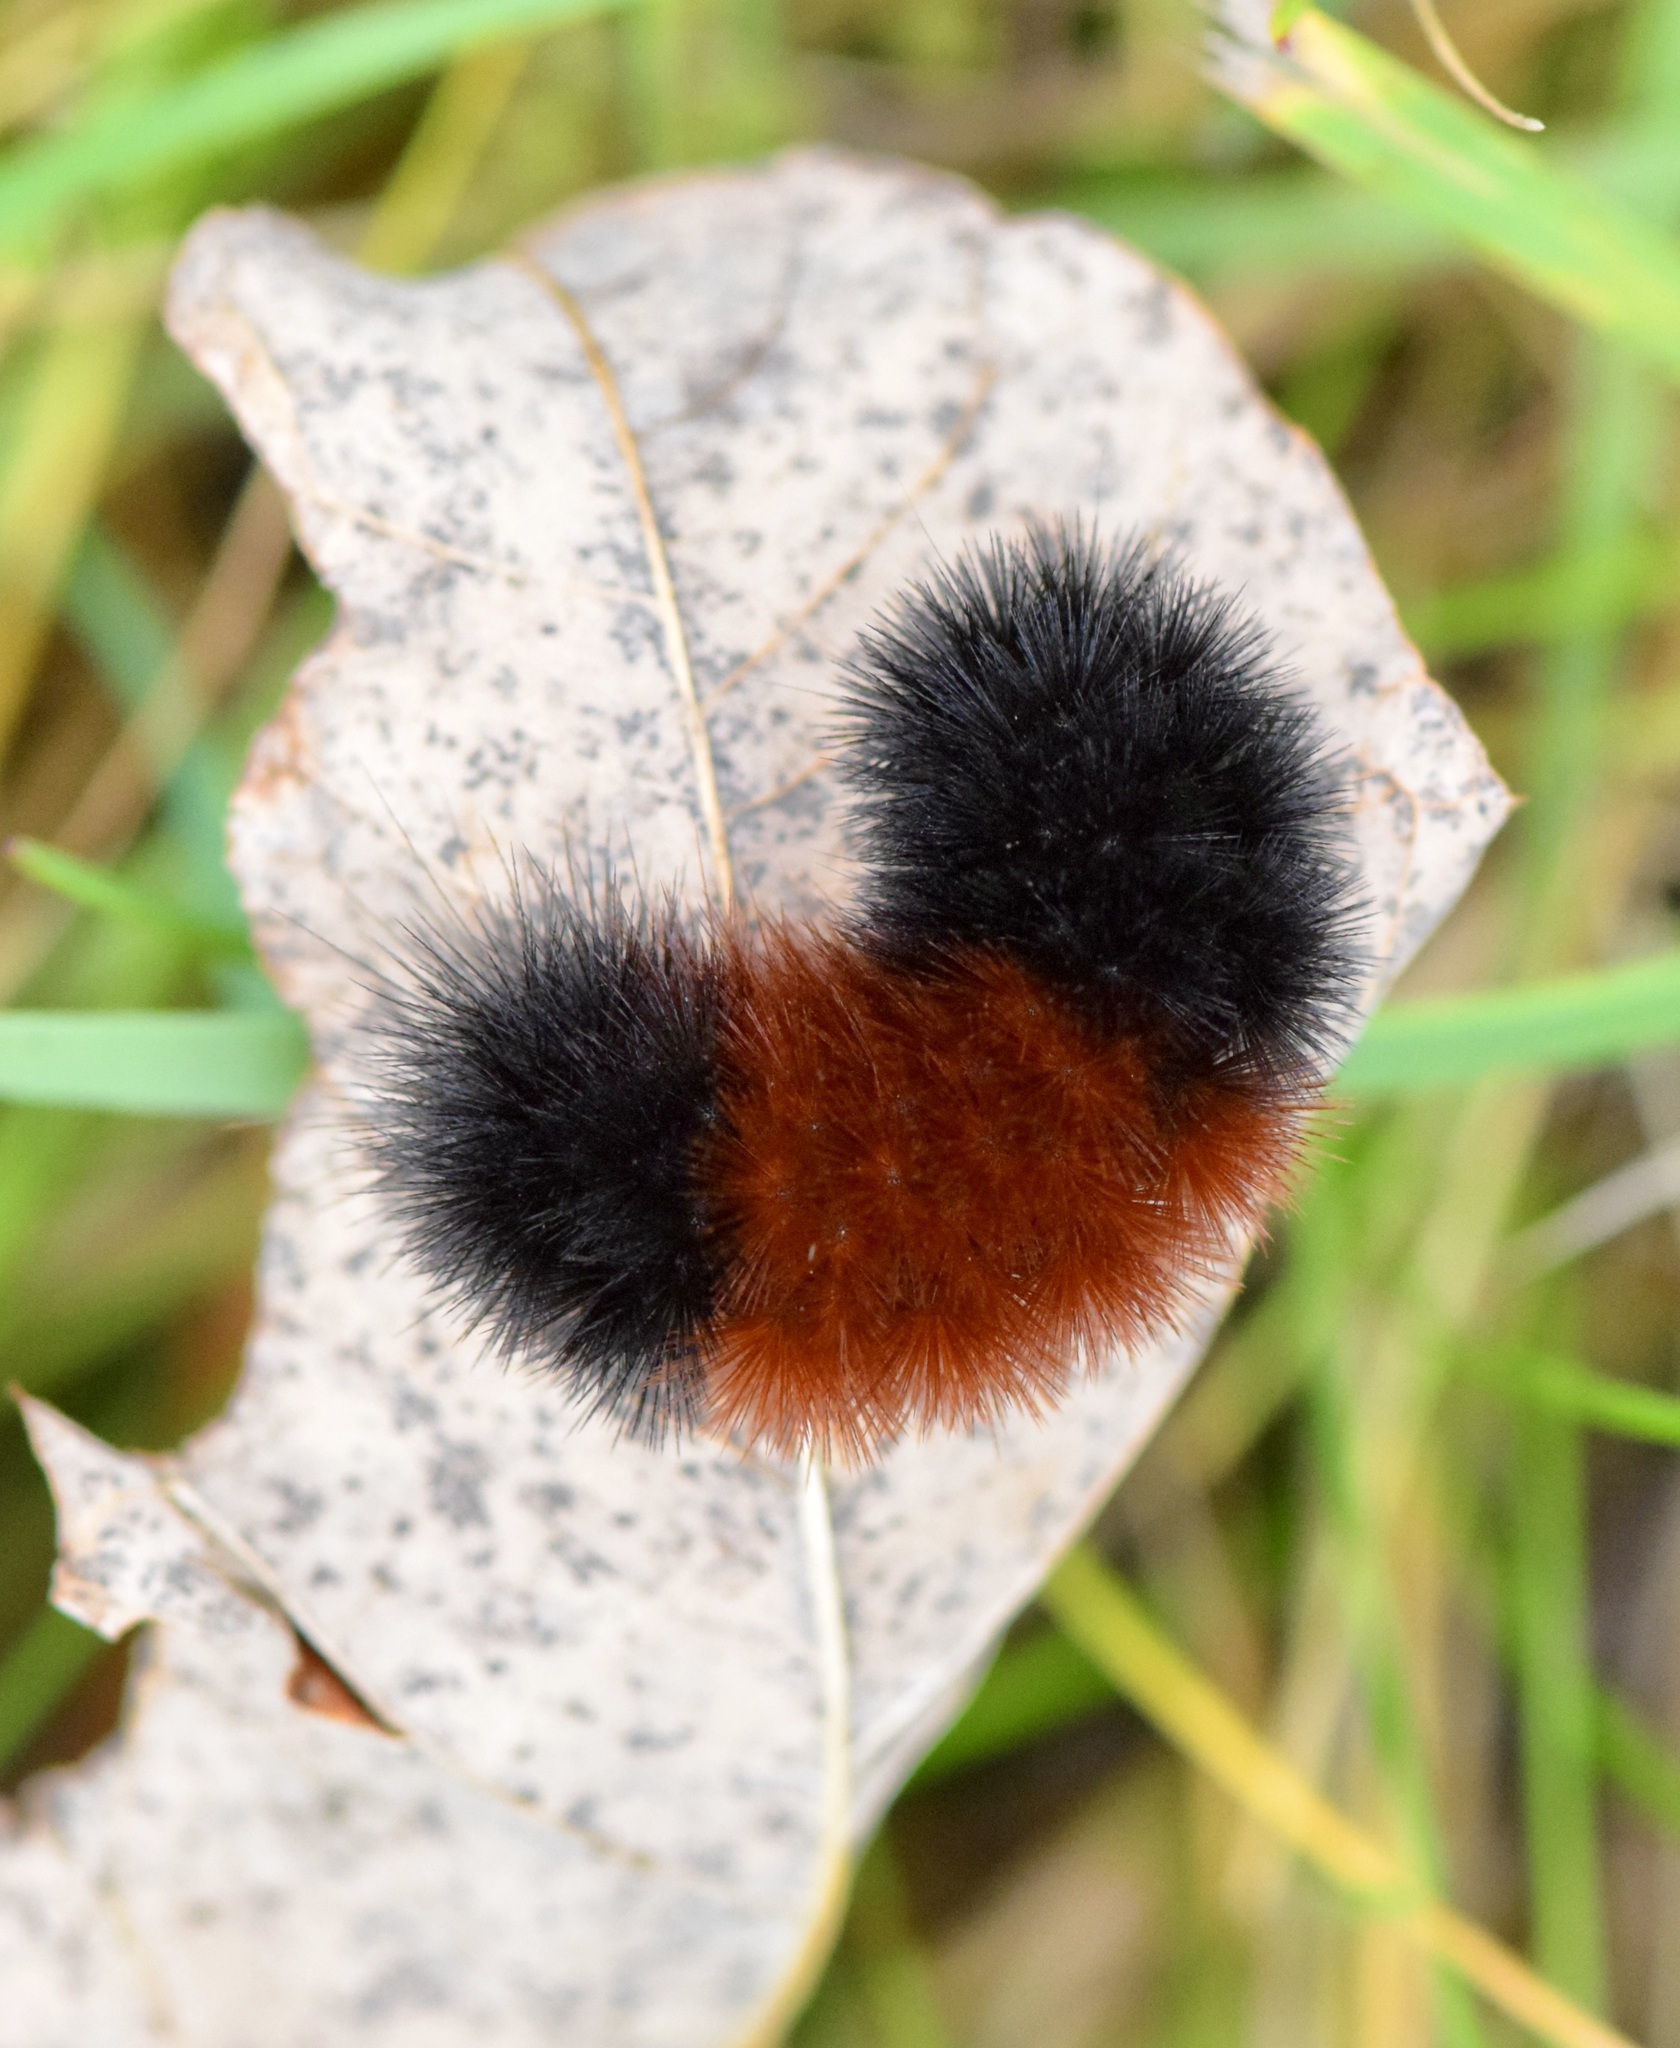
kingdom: Animalia
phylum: Arthropoda
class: Insecta
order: Lepidoptera
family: Erebidae
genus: Pyrrharctia
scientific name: Pyrrharctia isabella
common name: Isabella tiger moth
